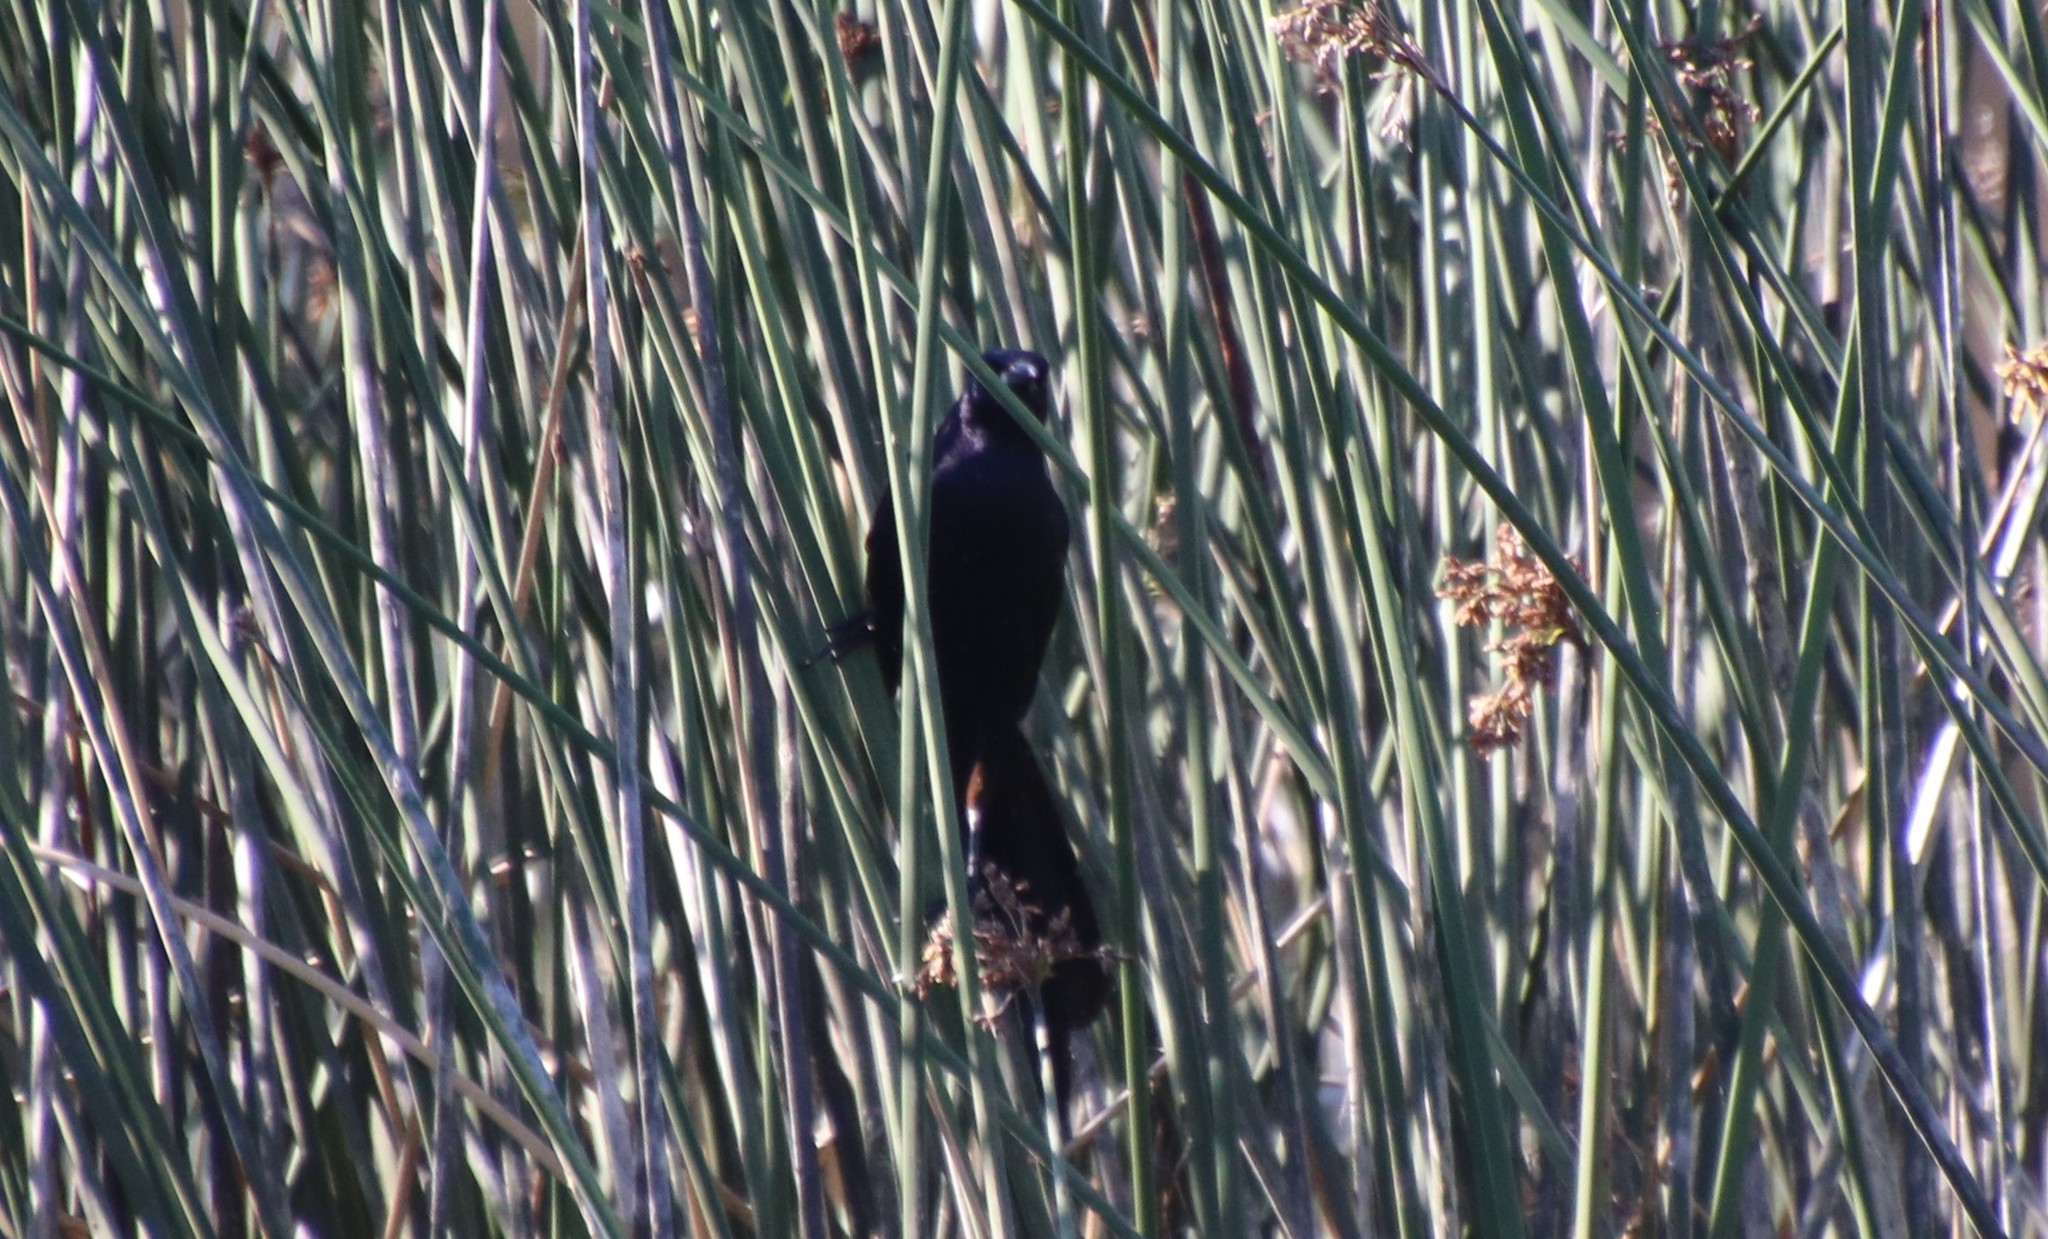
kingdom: Animalia
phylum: Chordata
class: Aves
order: Passeriformes
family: Icteridae
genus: Quiscalus
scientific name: Quiscalus mexicanus
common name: Great-tailed grackle
